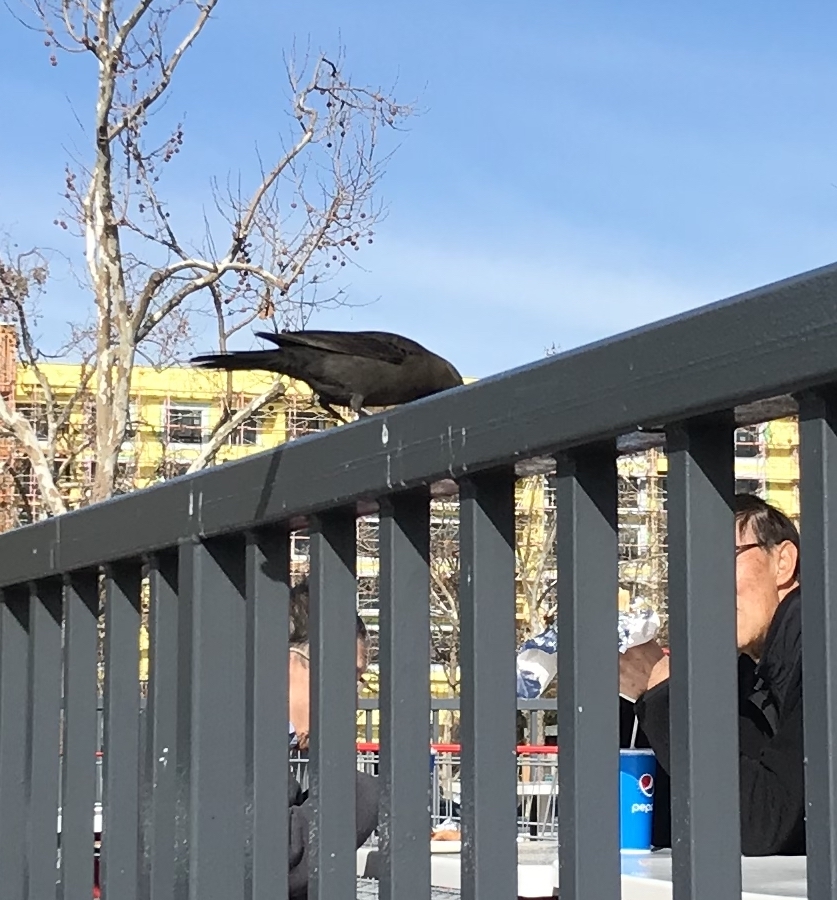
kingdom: Animalia
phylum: Chordata
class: Aves
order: Passeriformes
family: Icteridae
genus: Euphagus
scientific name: Euphagus cyanocephalus
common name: Brewer's blackbird
